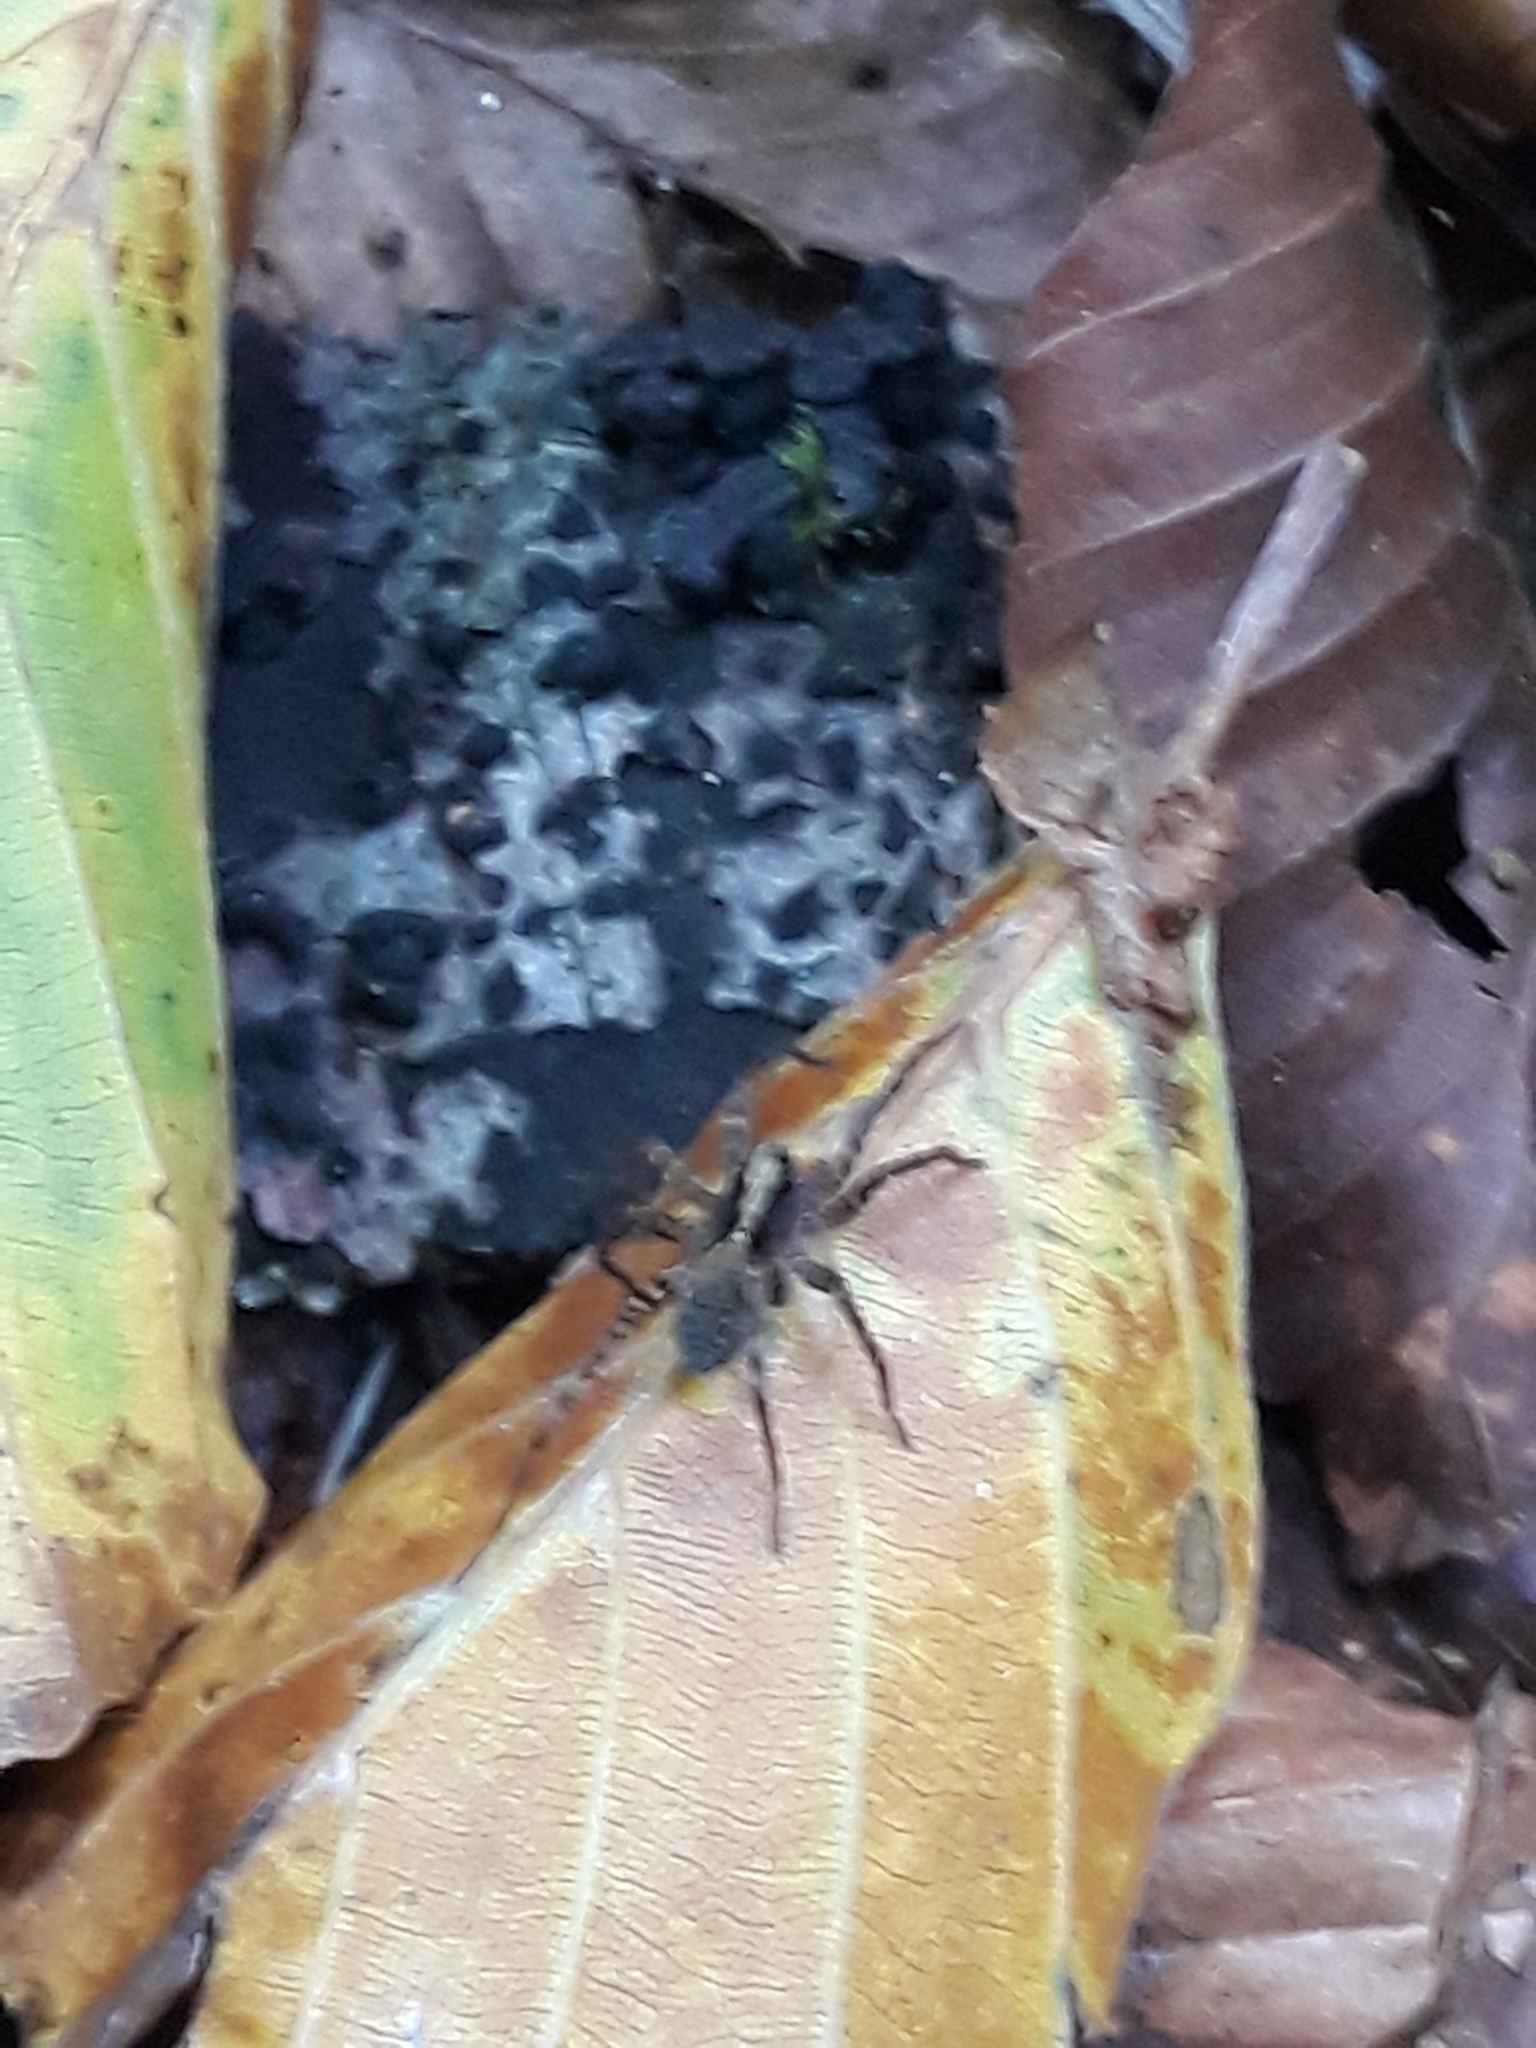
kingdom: Animalia
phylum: Arthropoda
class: Arachnida
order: Araneae
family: Lycosidae
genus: Pardosa
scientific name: Pardosa
